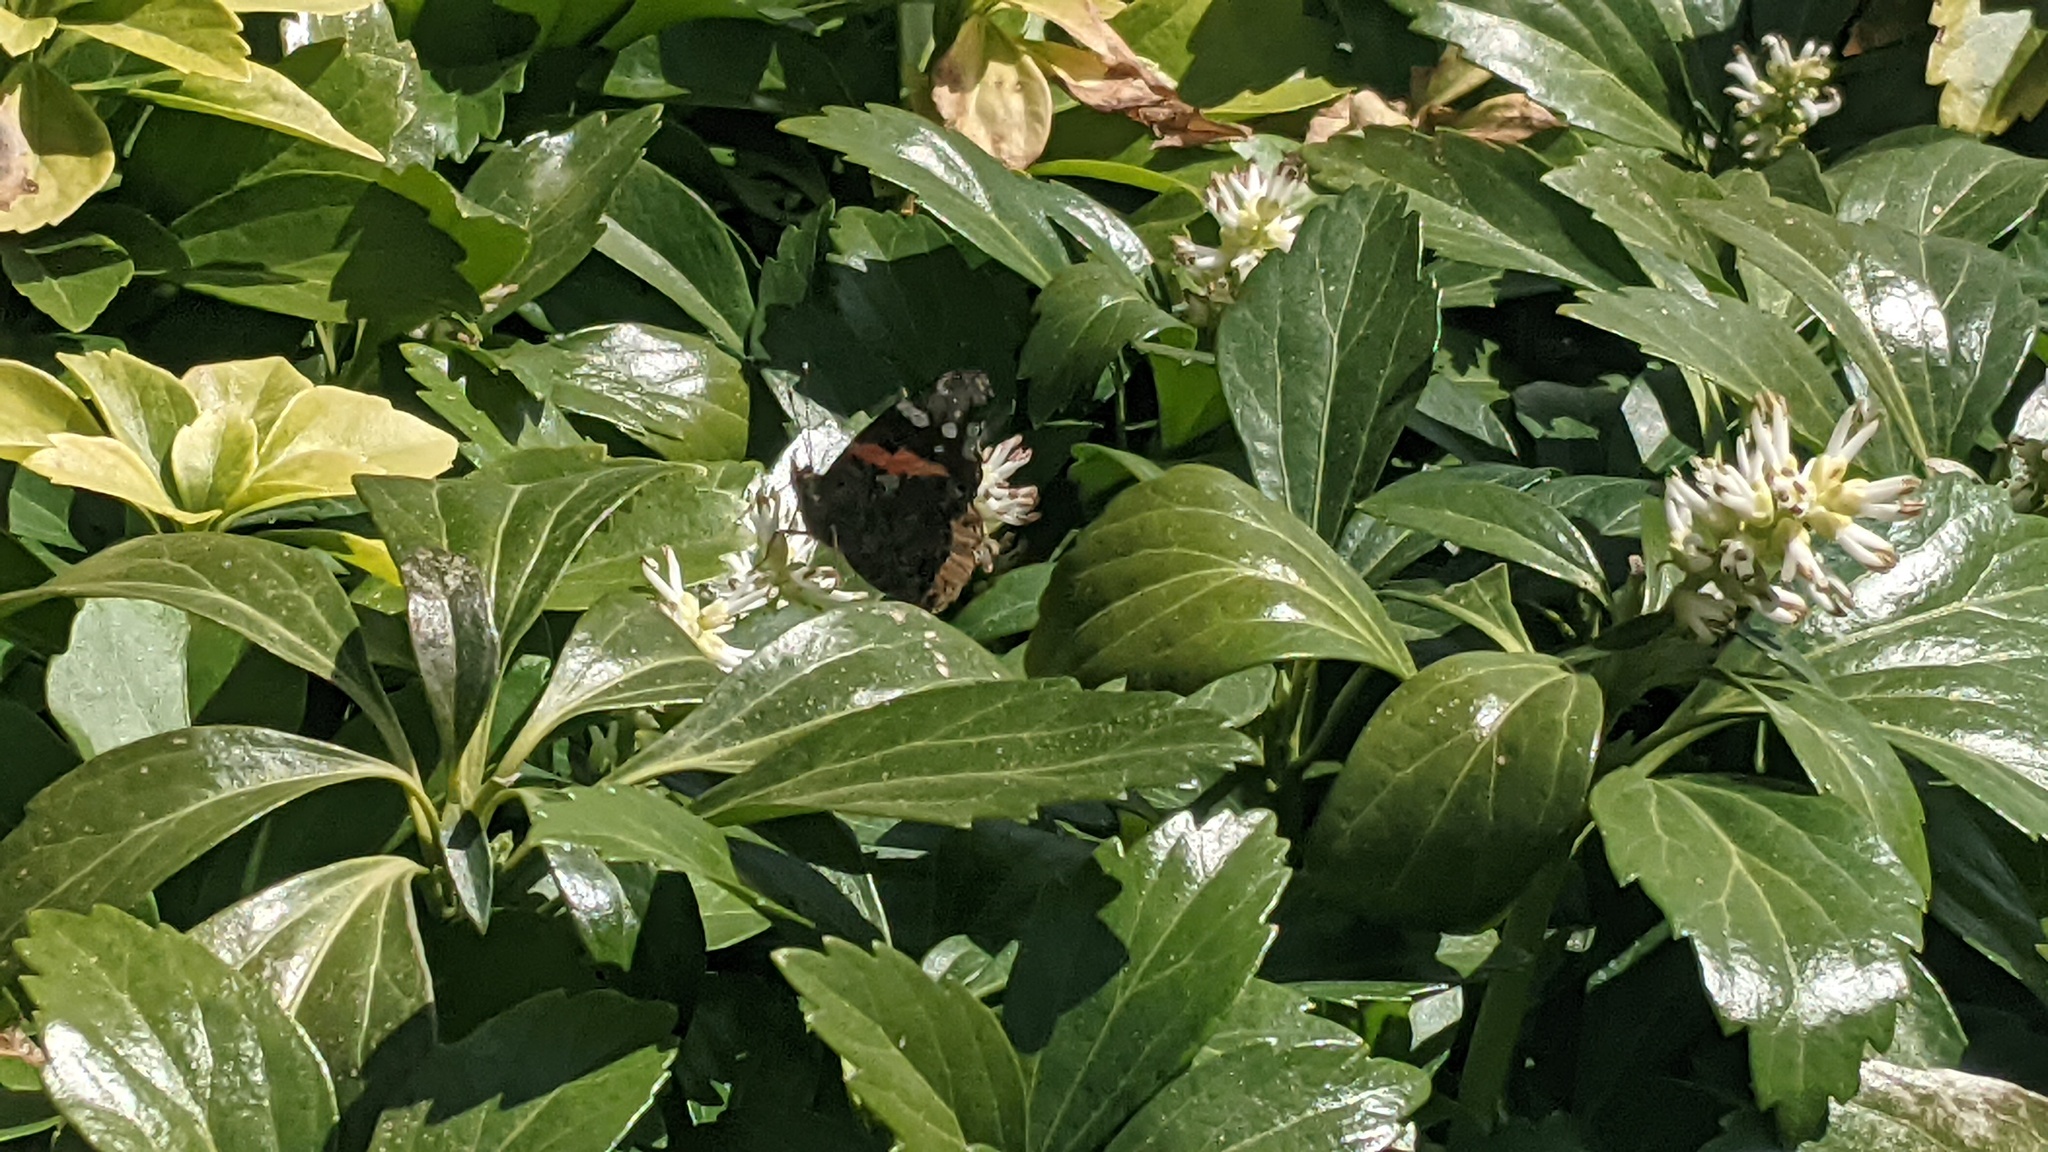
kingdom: Animalia
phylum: Arthropoda
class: Insecta
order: Lepidoptera
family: Nymphalidae
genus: Vanessa
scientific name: Vanessa atalanta
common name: Red admiral
